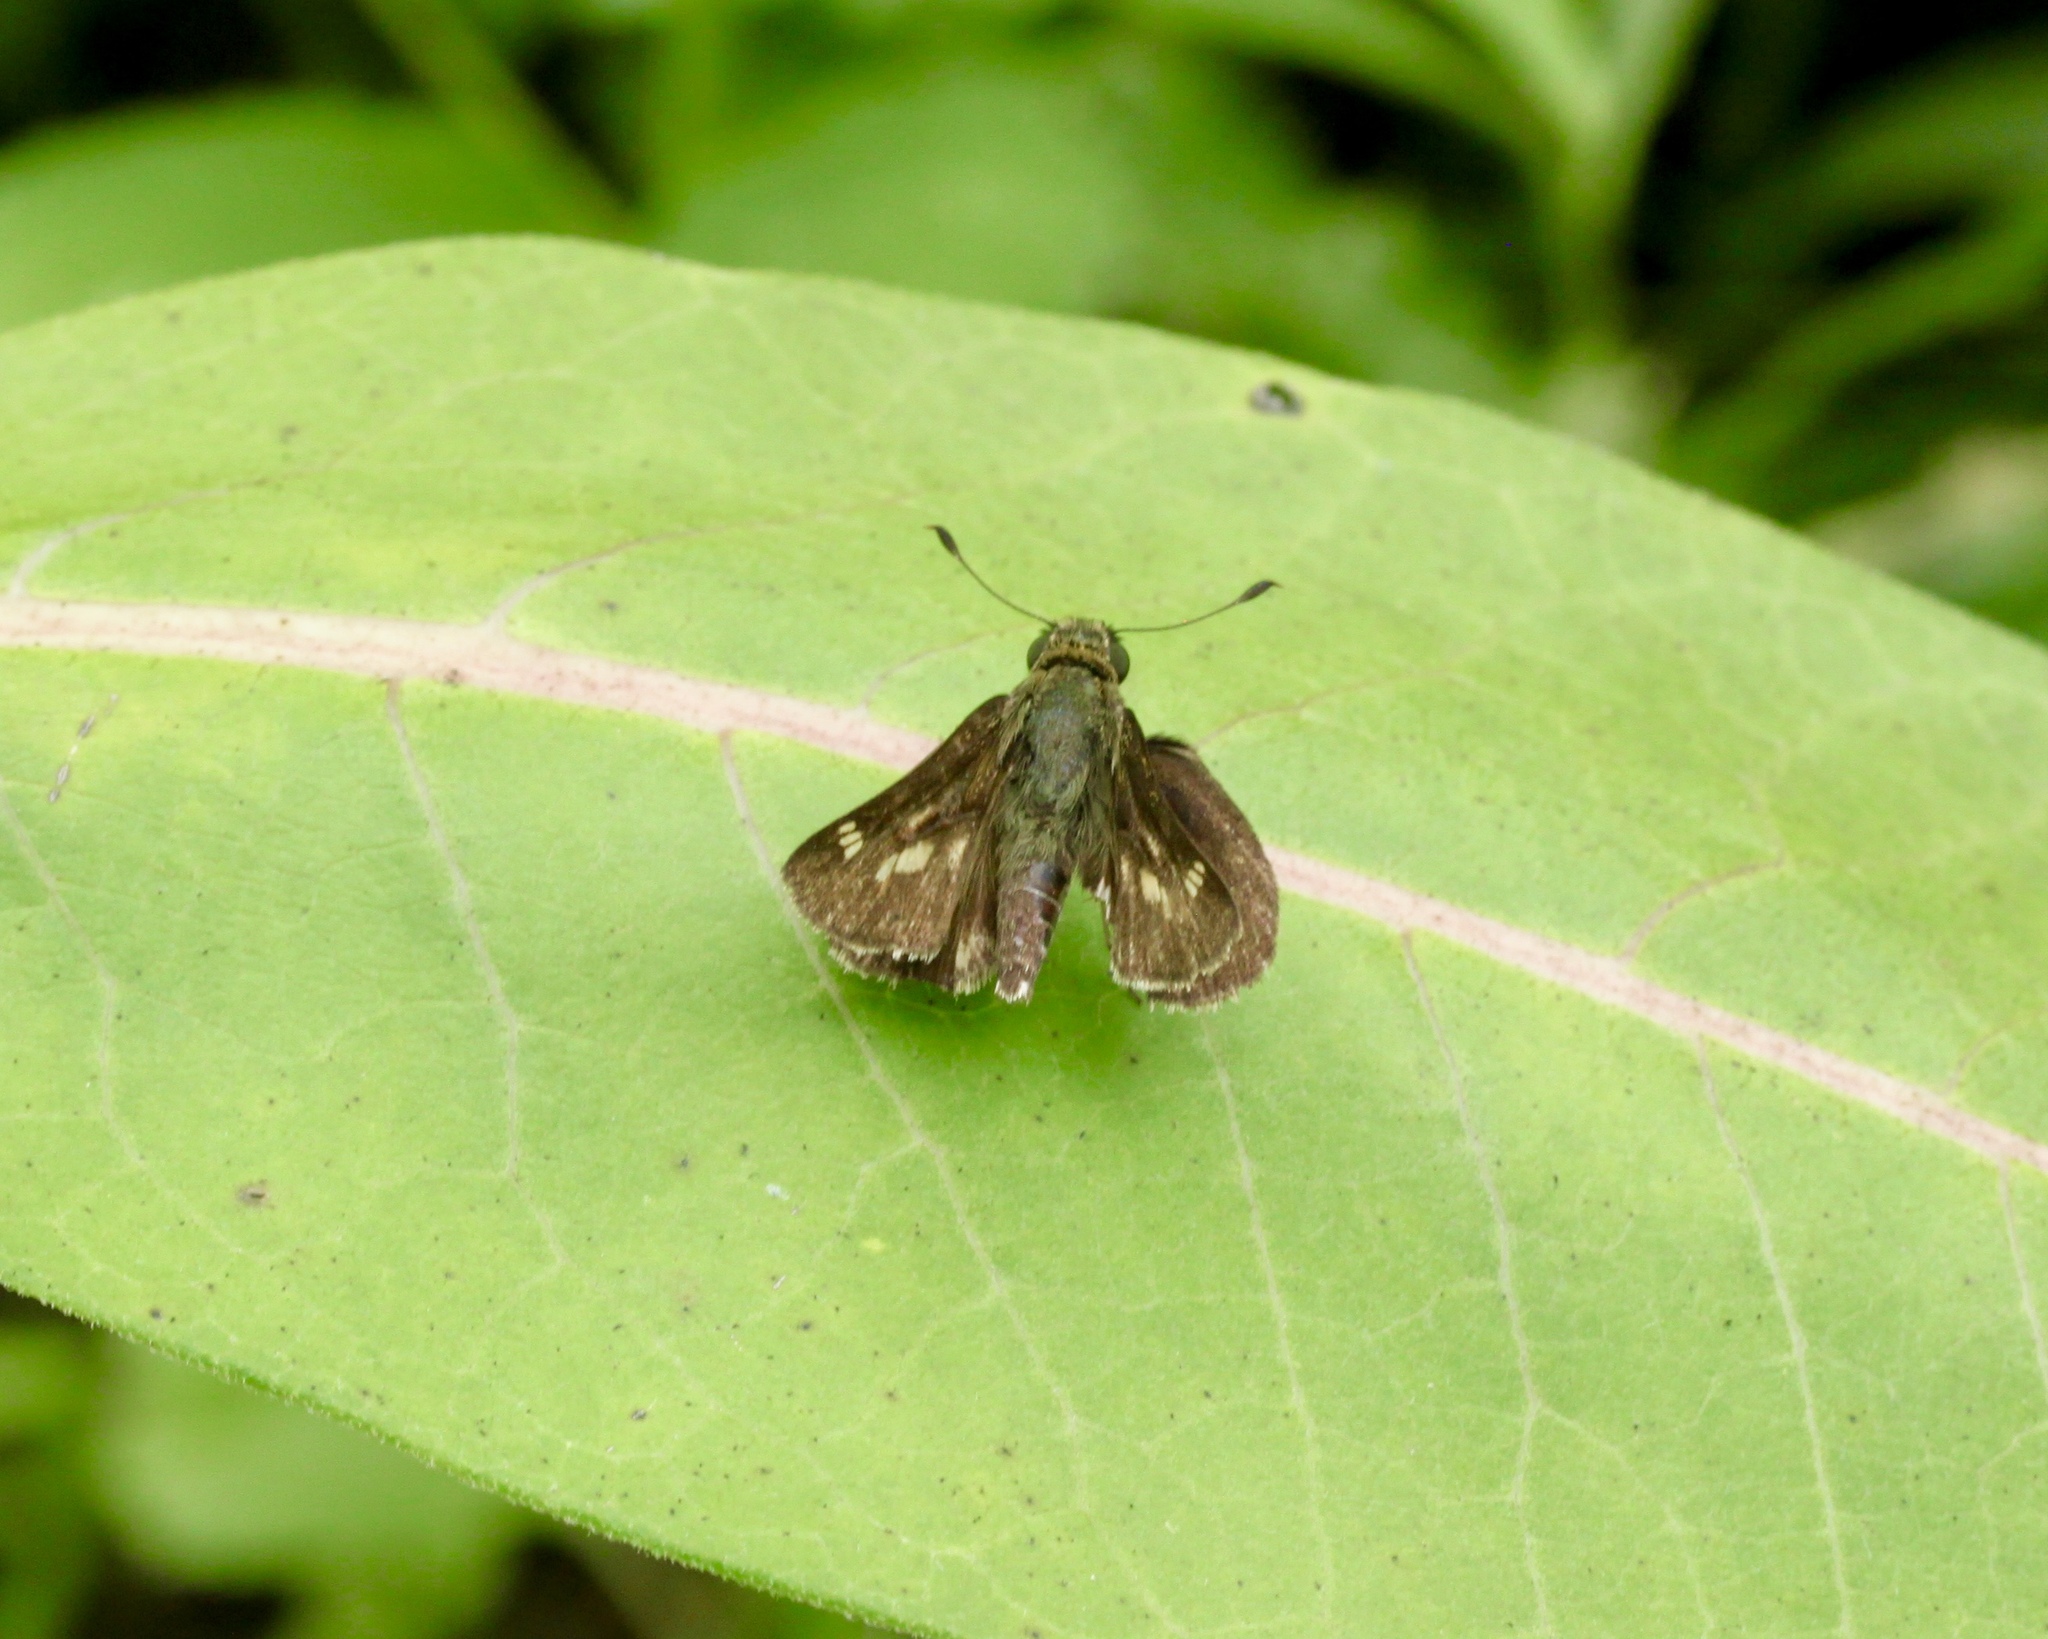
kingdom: Animalia
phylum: Arthropoda
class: Insecta
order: Lepidoptera
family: Hesperiidae
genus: Vernia
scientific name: Vernia verna
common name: Little glassywing
